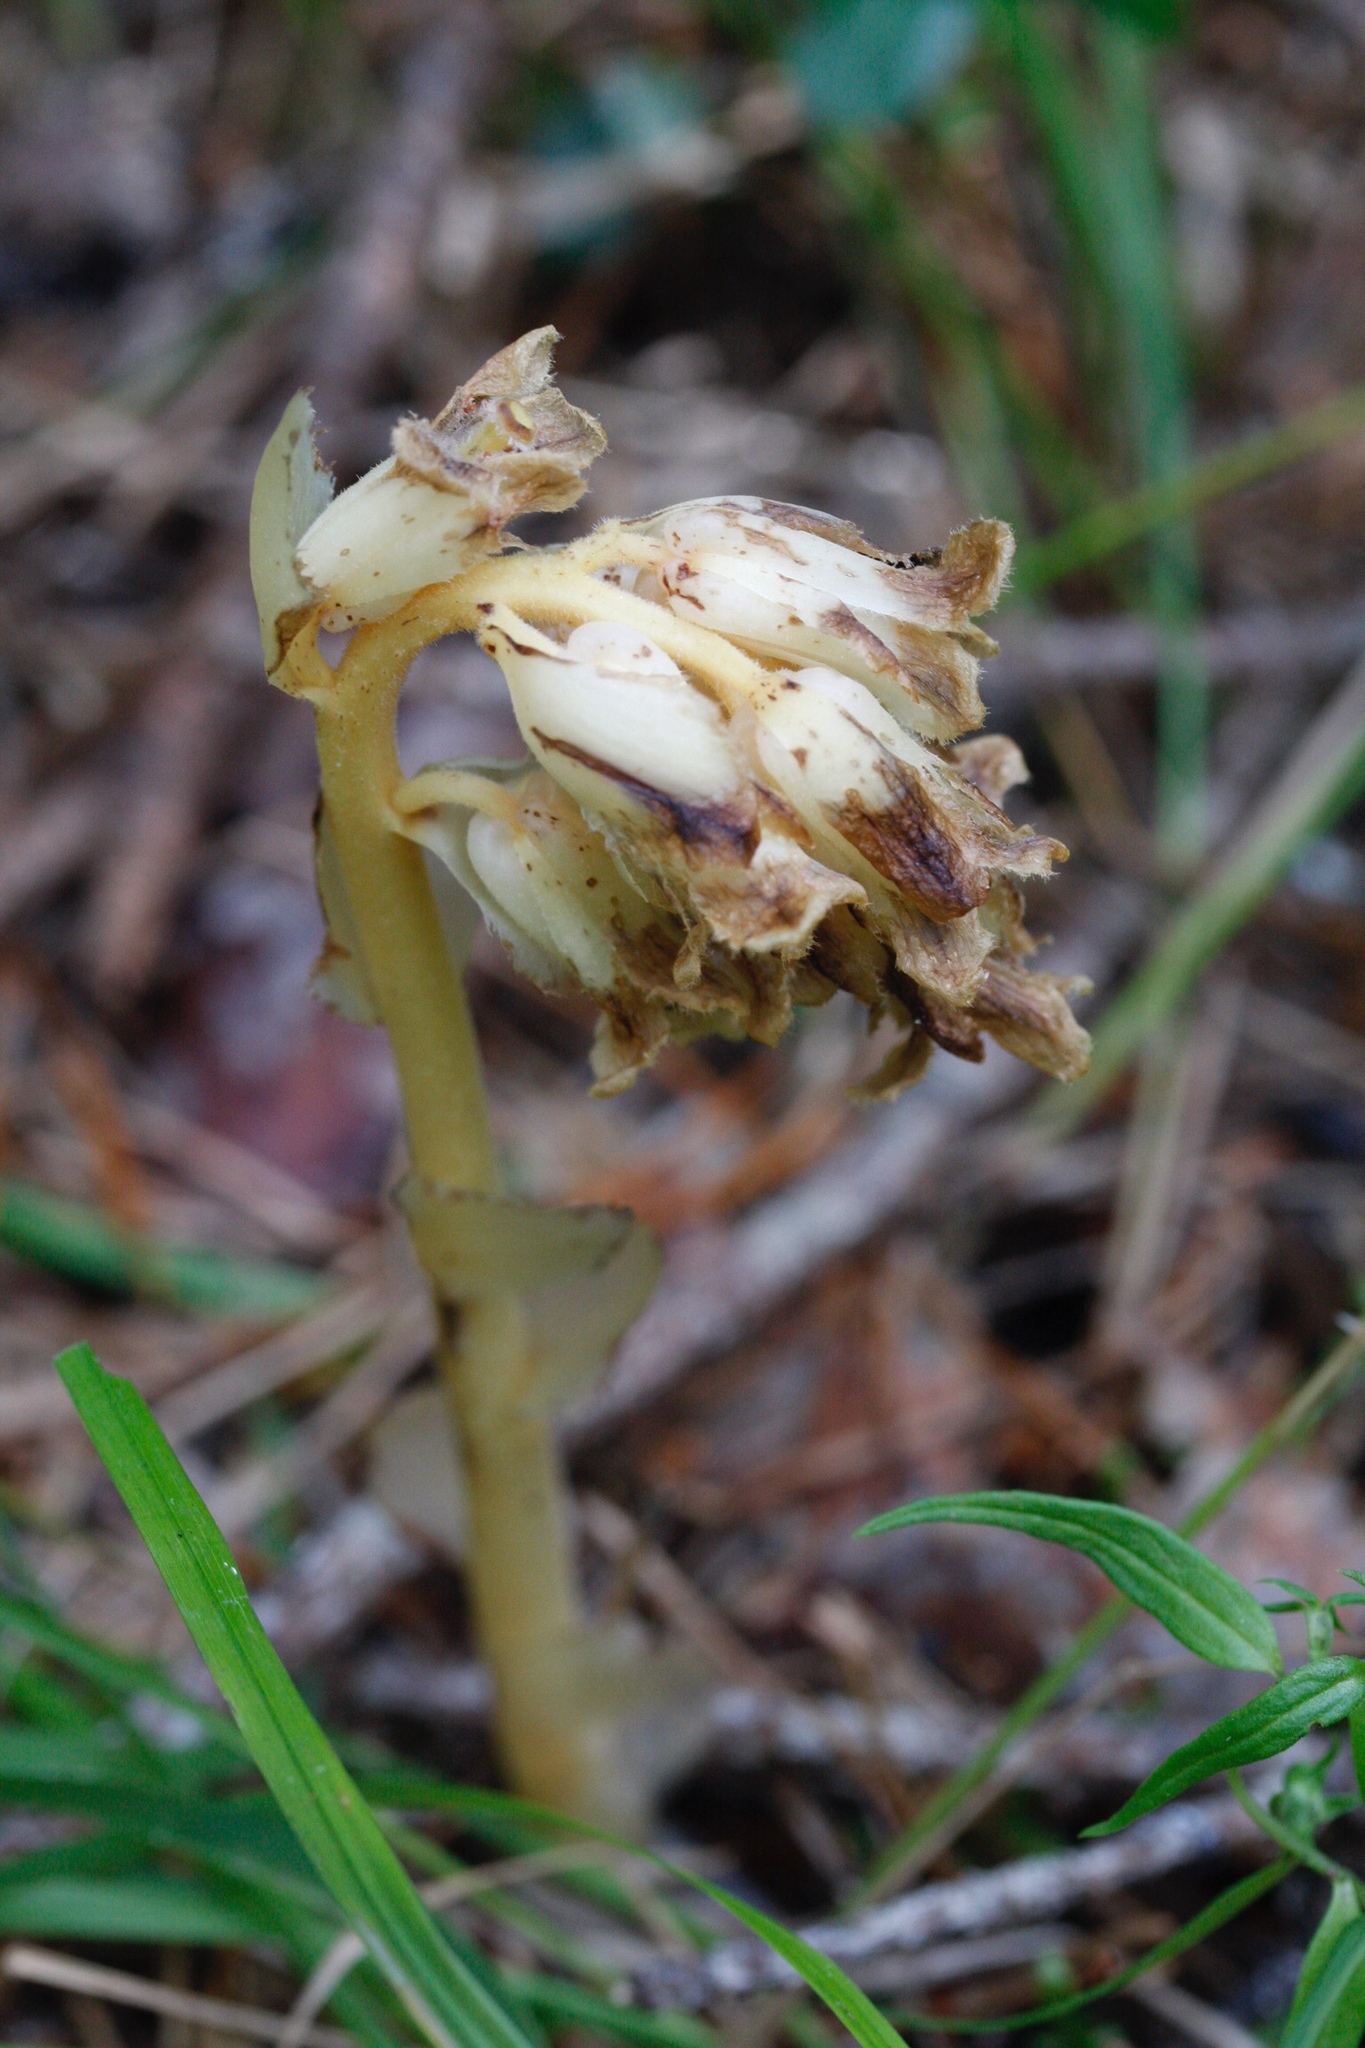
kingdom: Plantae
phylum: Tracheophyta
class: Magnoliopsida
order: Ericales
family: Ericaceae
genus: Hypopitys
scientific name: Hypopitys monotropa
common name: Yellow bird's-nest
